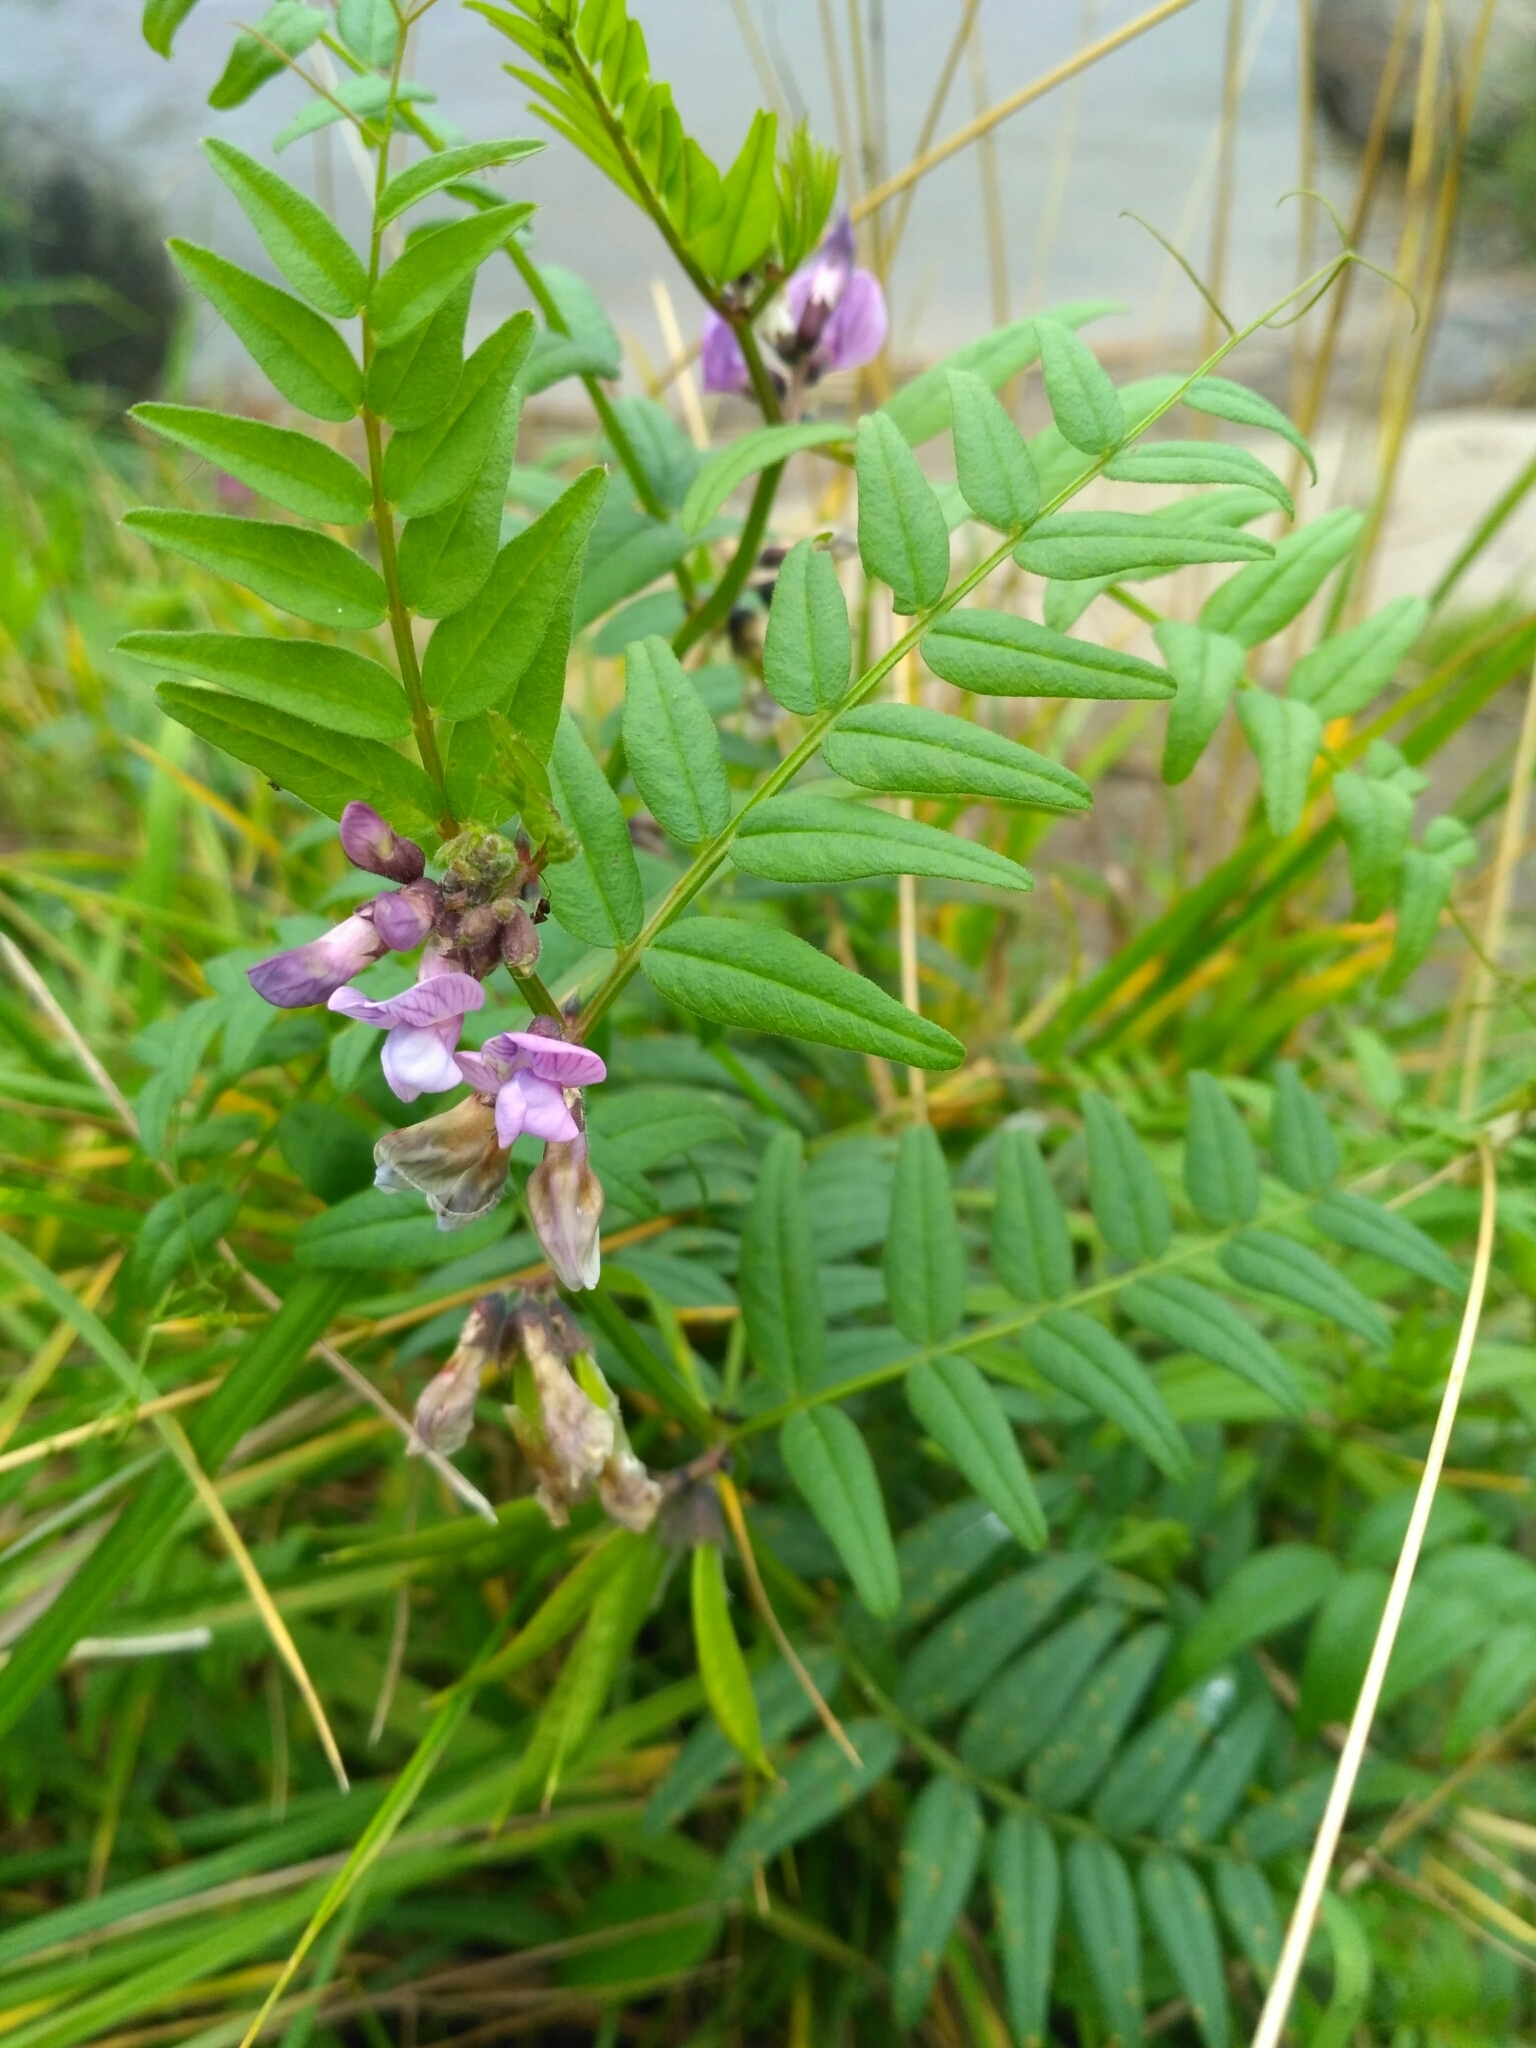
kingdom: Plantae
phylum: Tracheophyta
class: Magnoliopsida
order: Fabales
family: Fabaceae
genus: Vicia
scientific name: Vicia sepium
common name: Bush vetch
